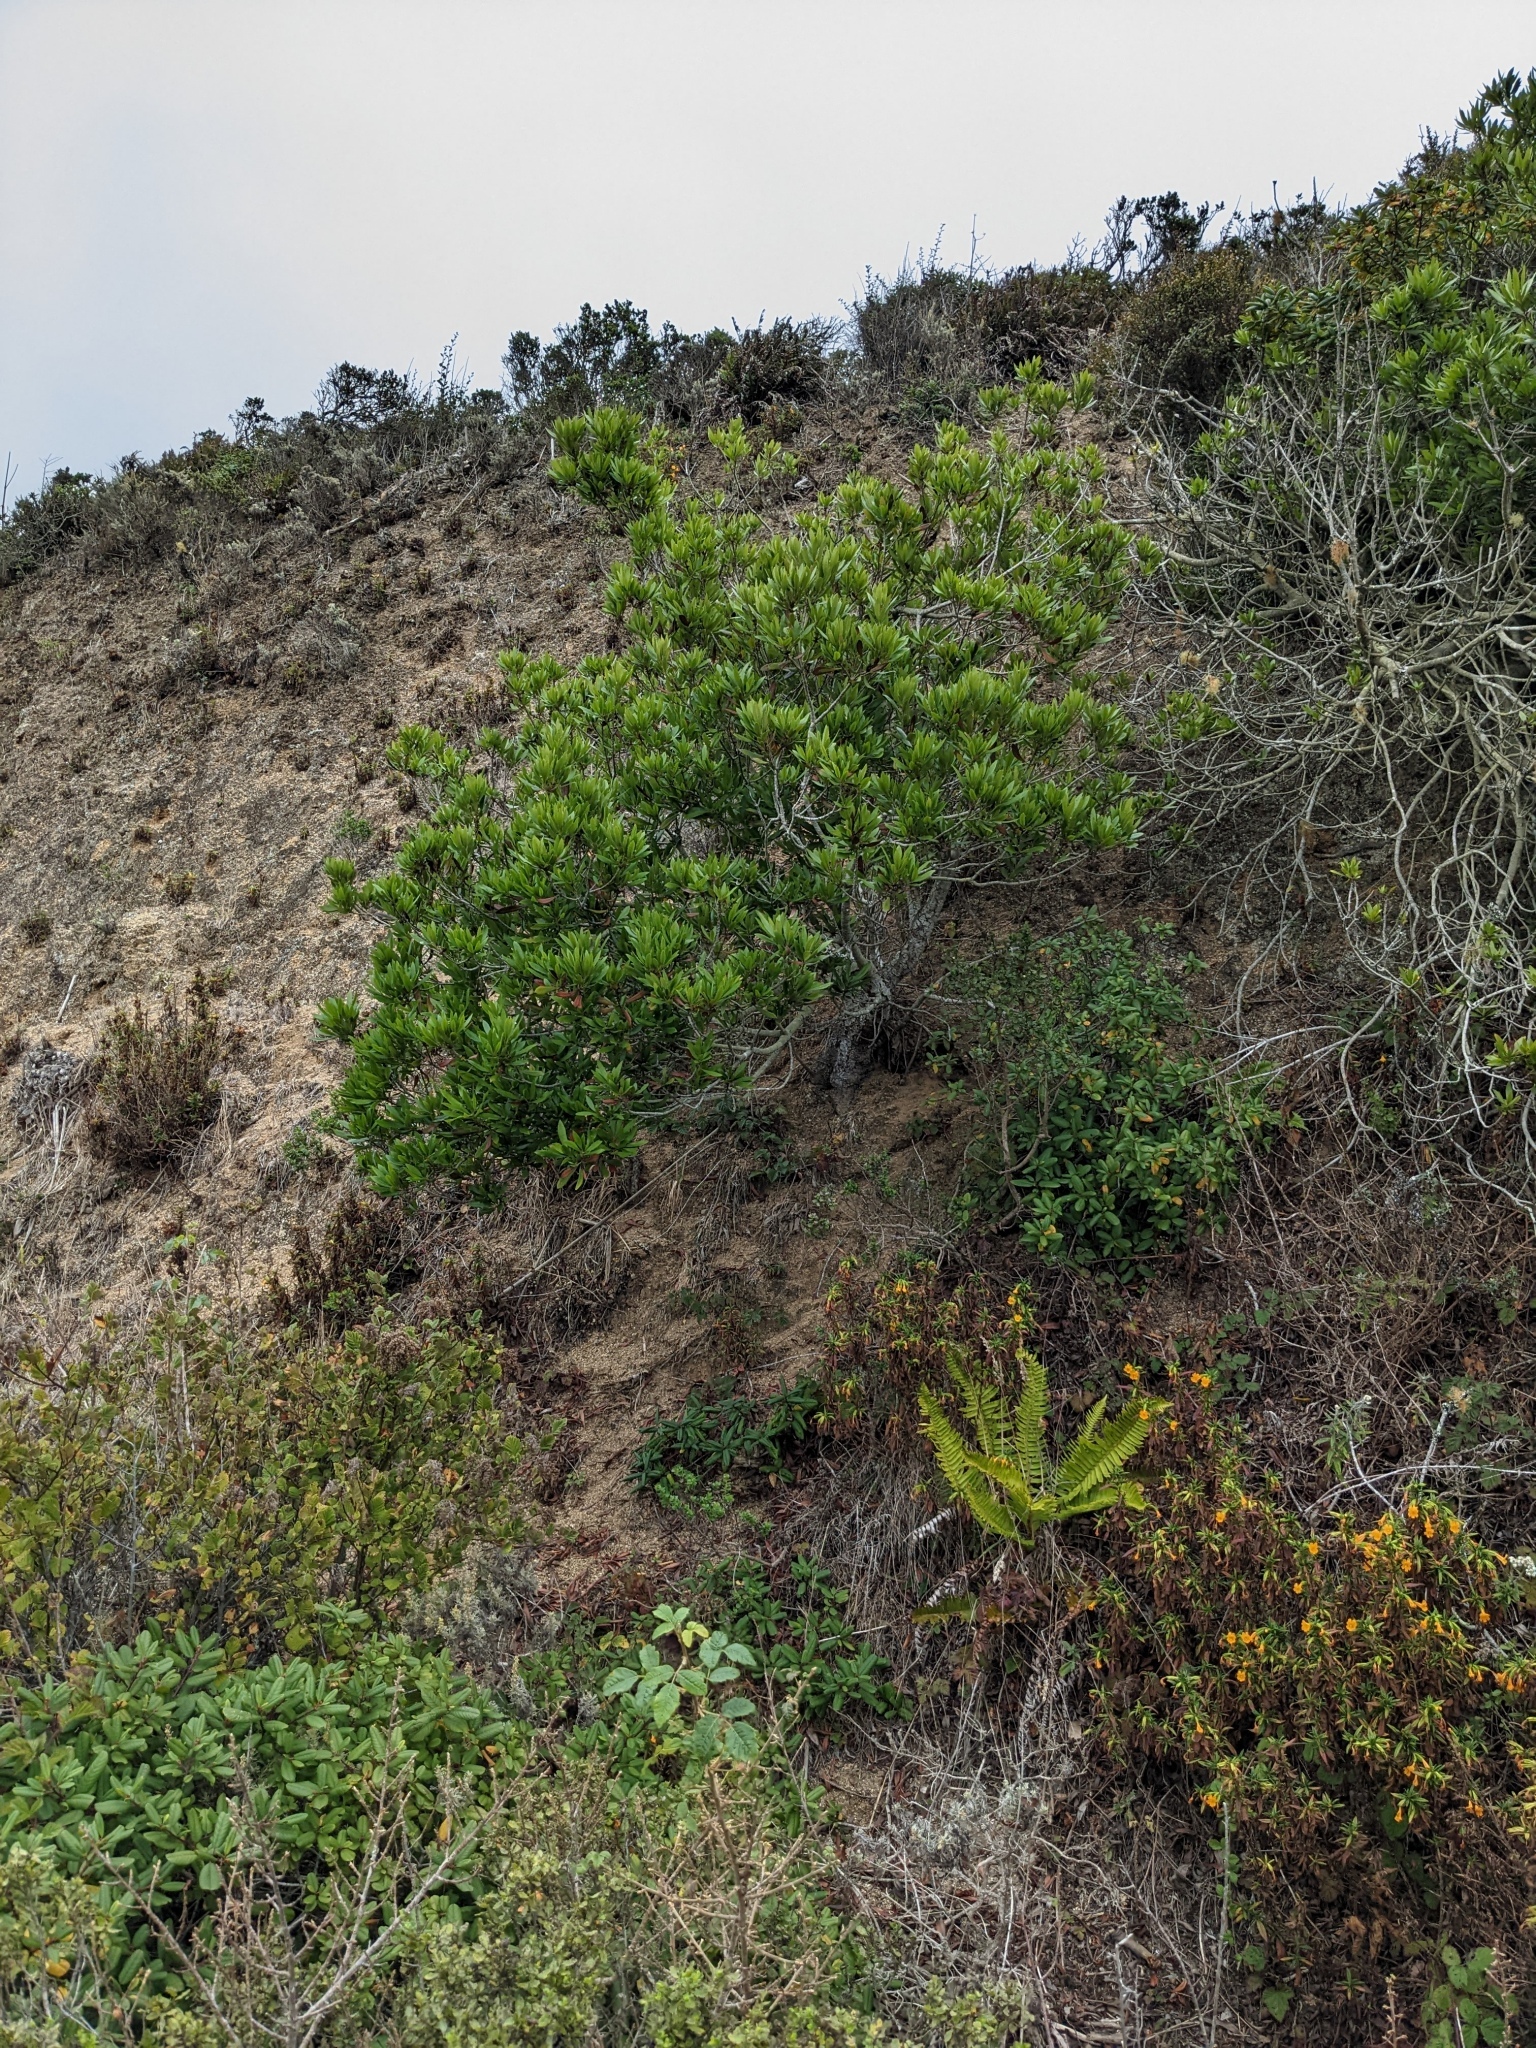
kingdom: Plantae
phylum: Tracheophyta
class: Magnoliopsida
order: Fagales
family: Myricaceae
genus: Morella
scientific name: Morella californica
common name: California wax-myrtle
